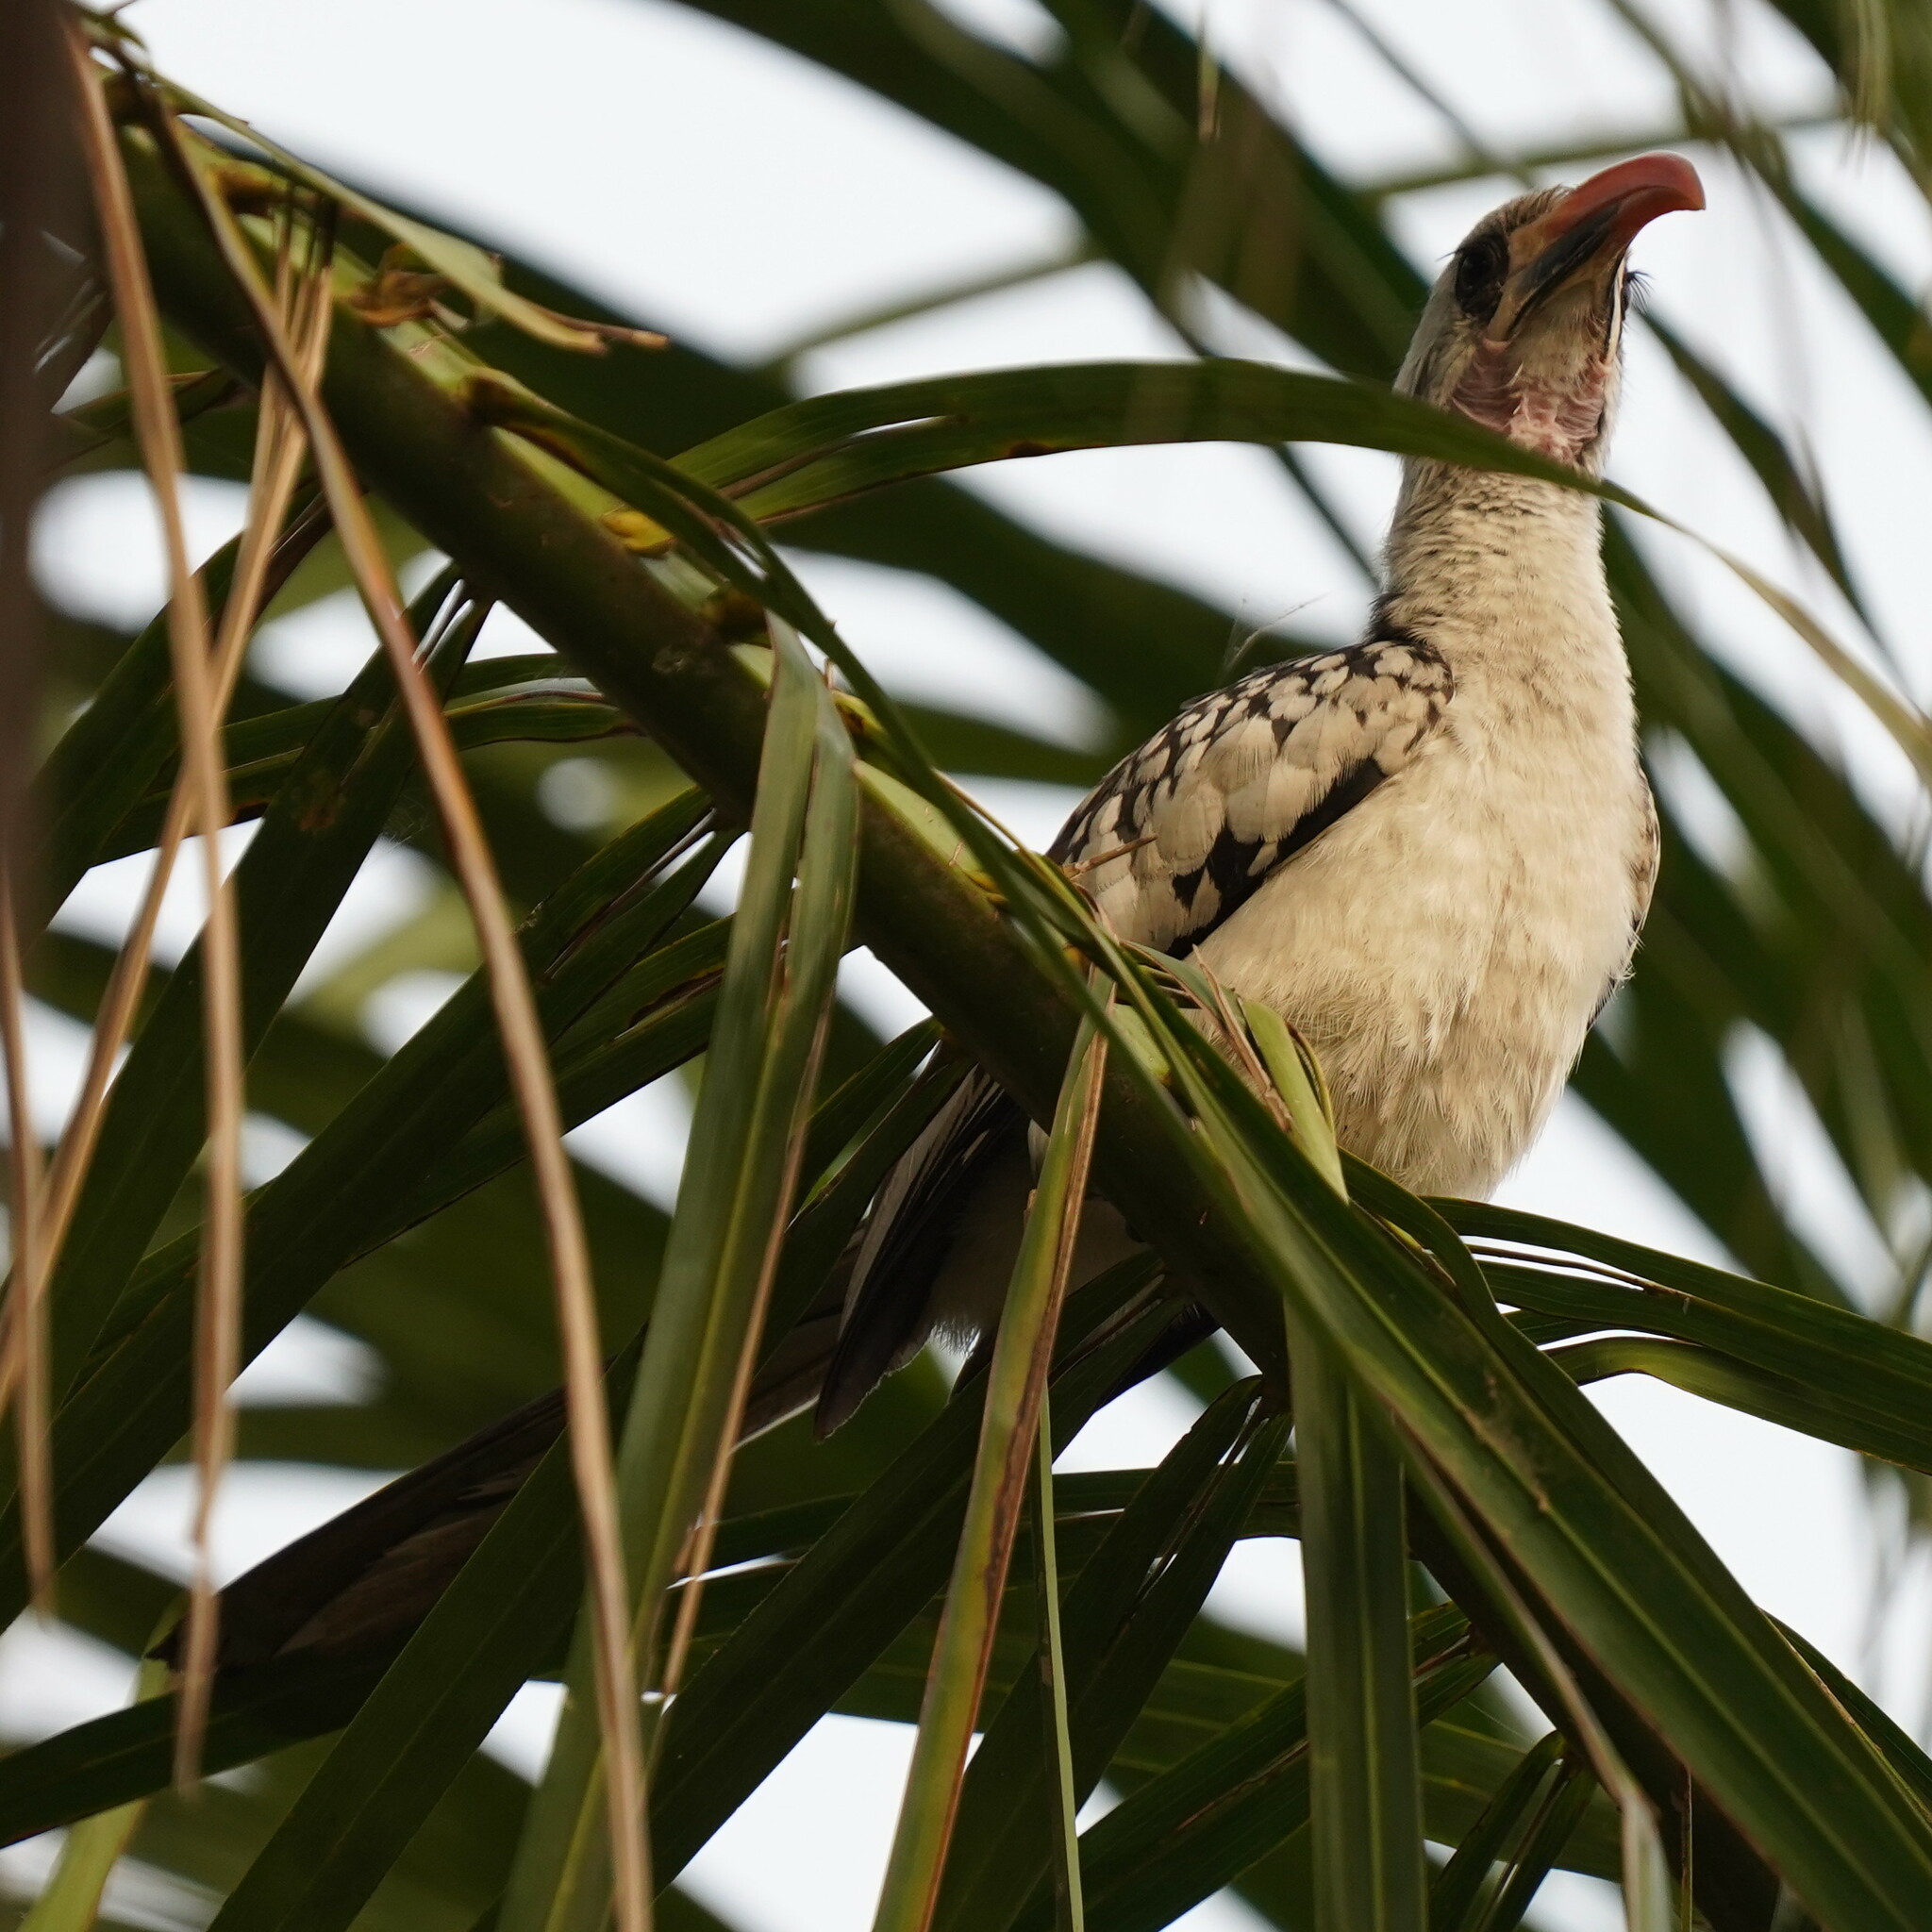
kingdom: Animalia
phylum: Chordata
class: Aves
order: Bucerotiformes
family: Bucerotidae
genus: Tockus
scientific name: Tockus kempi
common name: Western red-billed hornbill
